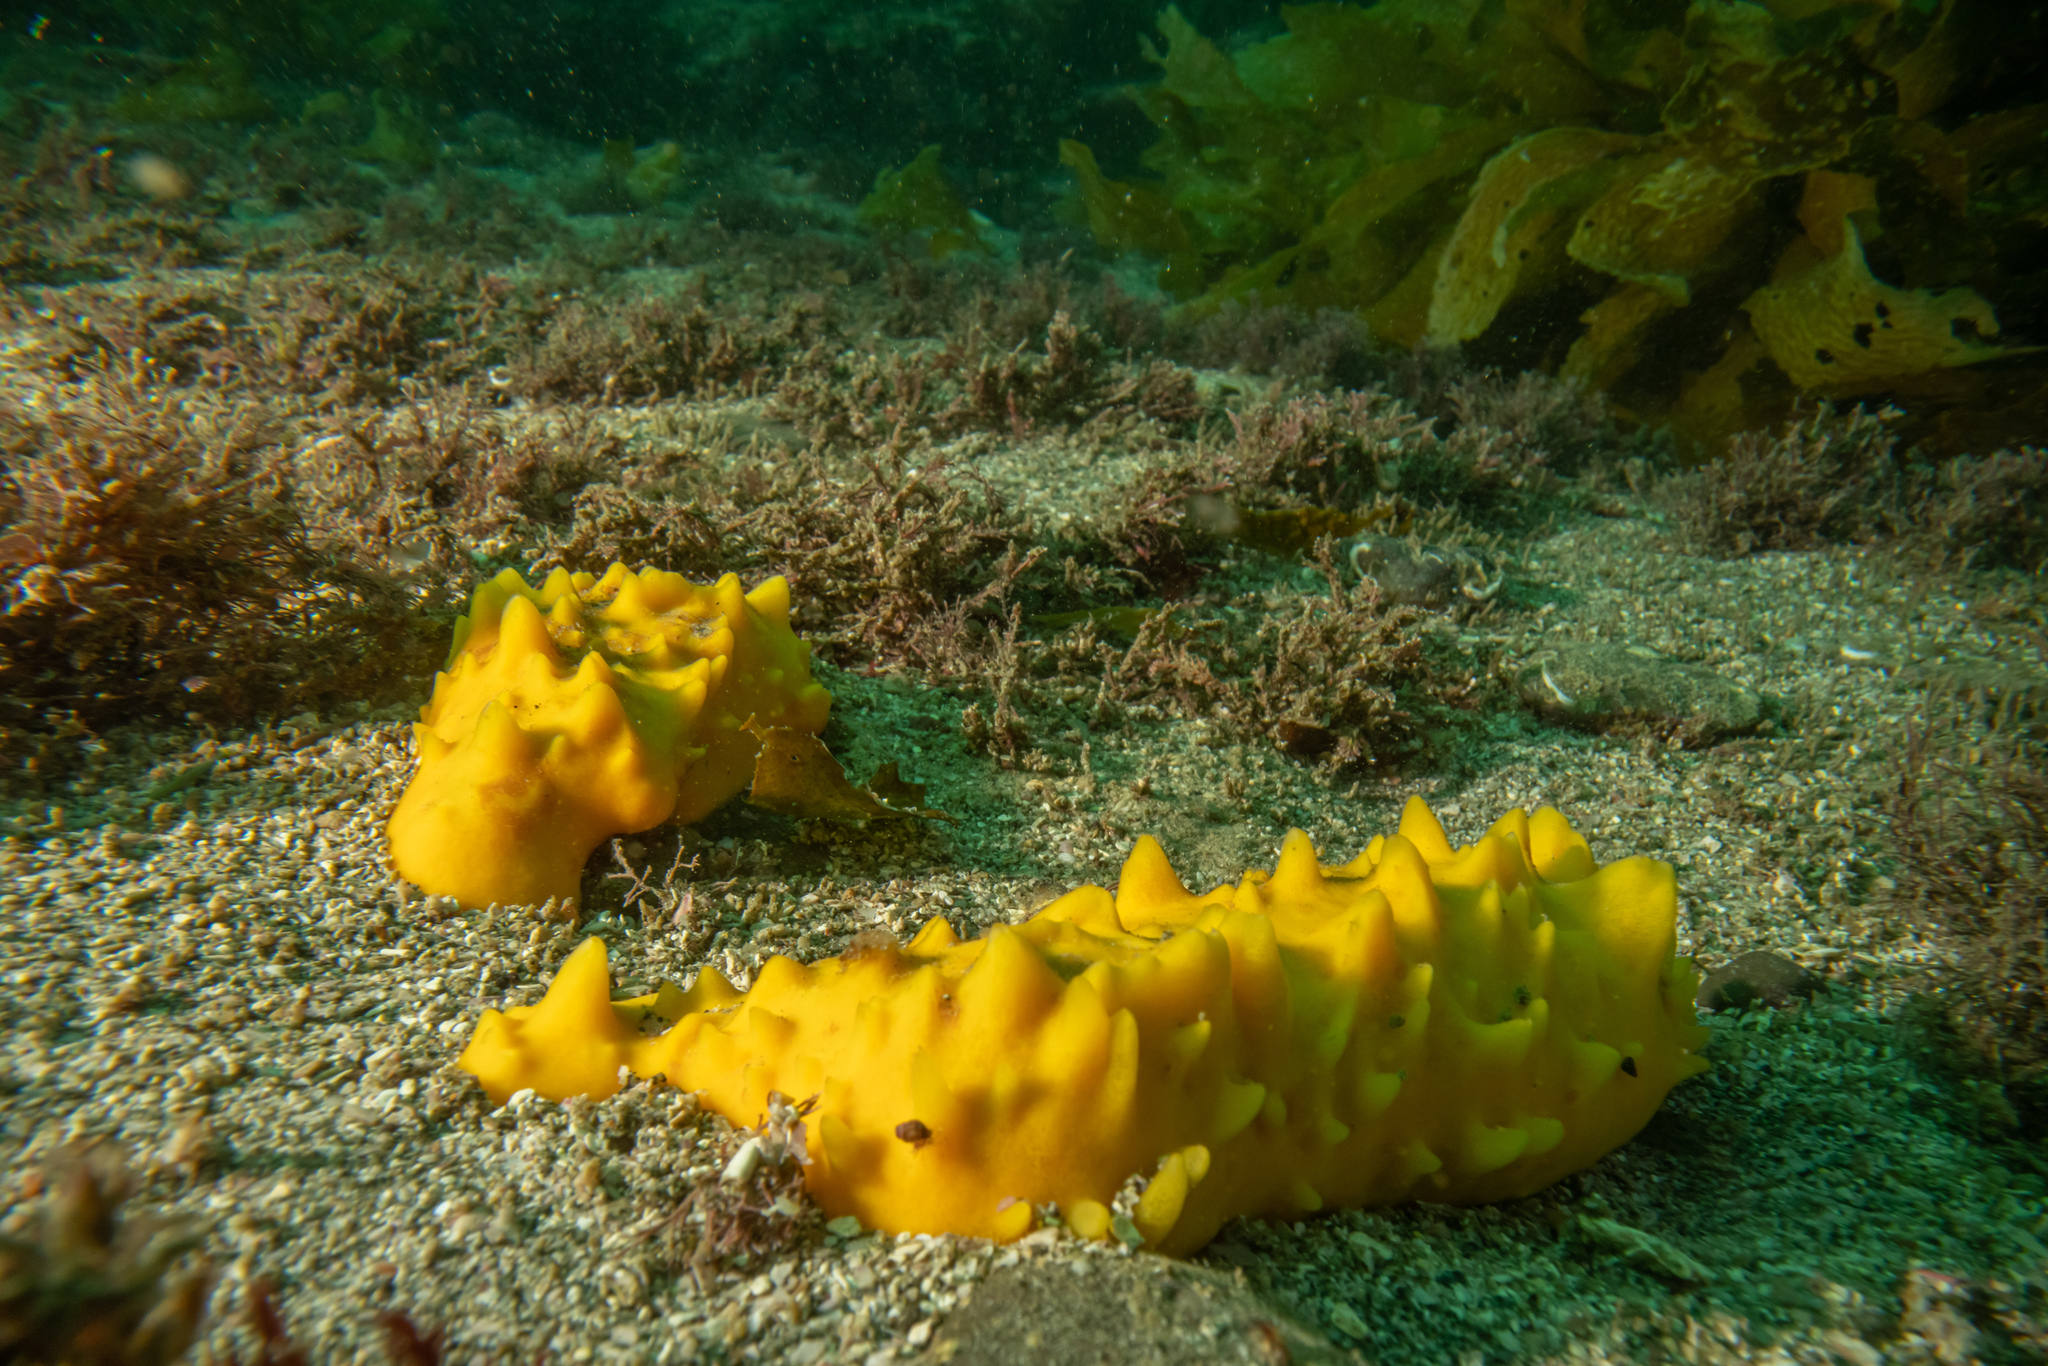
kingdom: Animalia
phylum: Porifera
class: Demospongiae
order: Polymastiida
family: Polymastiidae
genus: Polymastia
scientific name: Polymastia crocea
